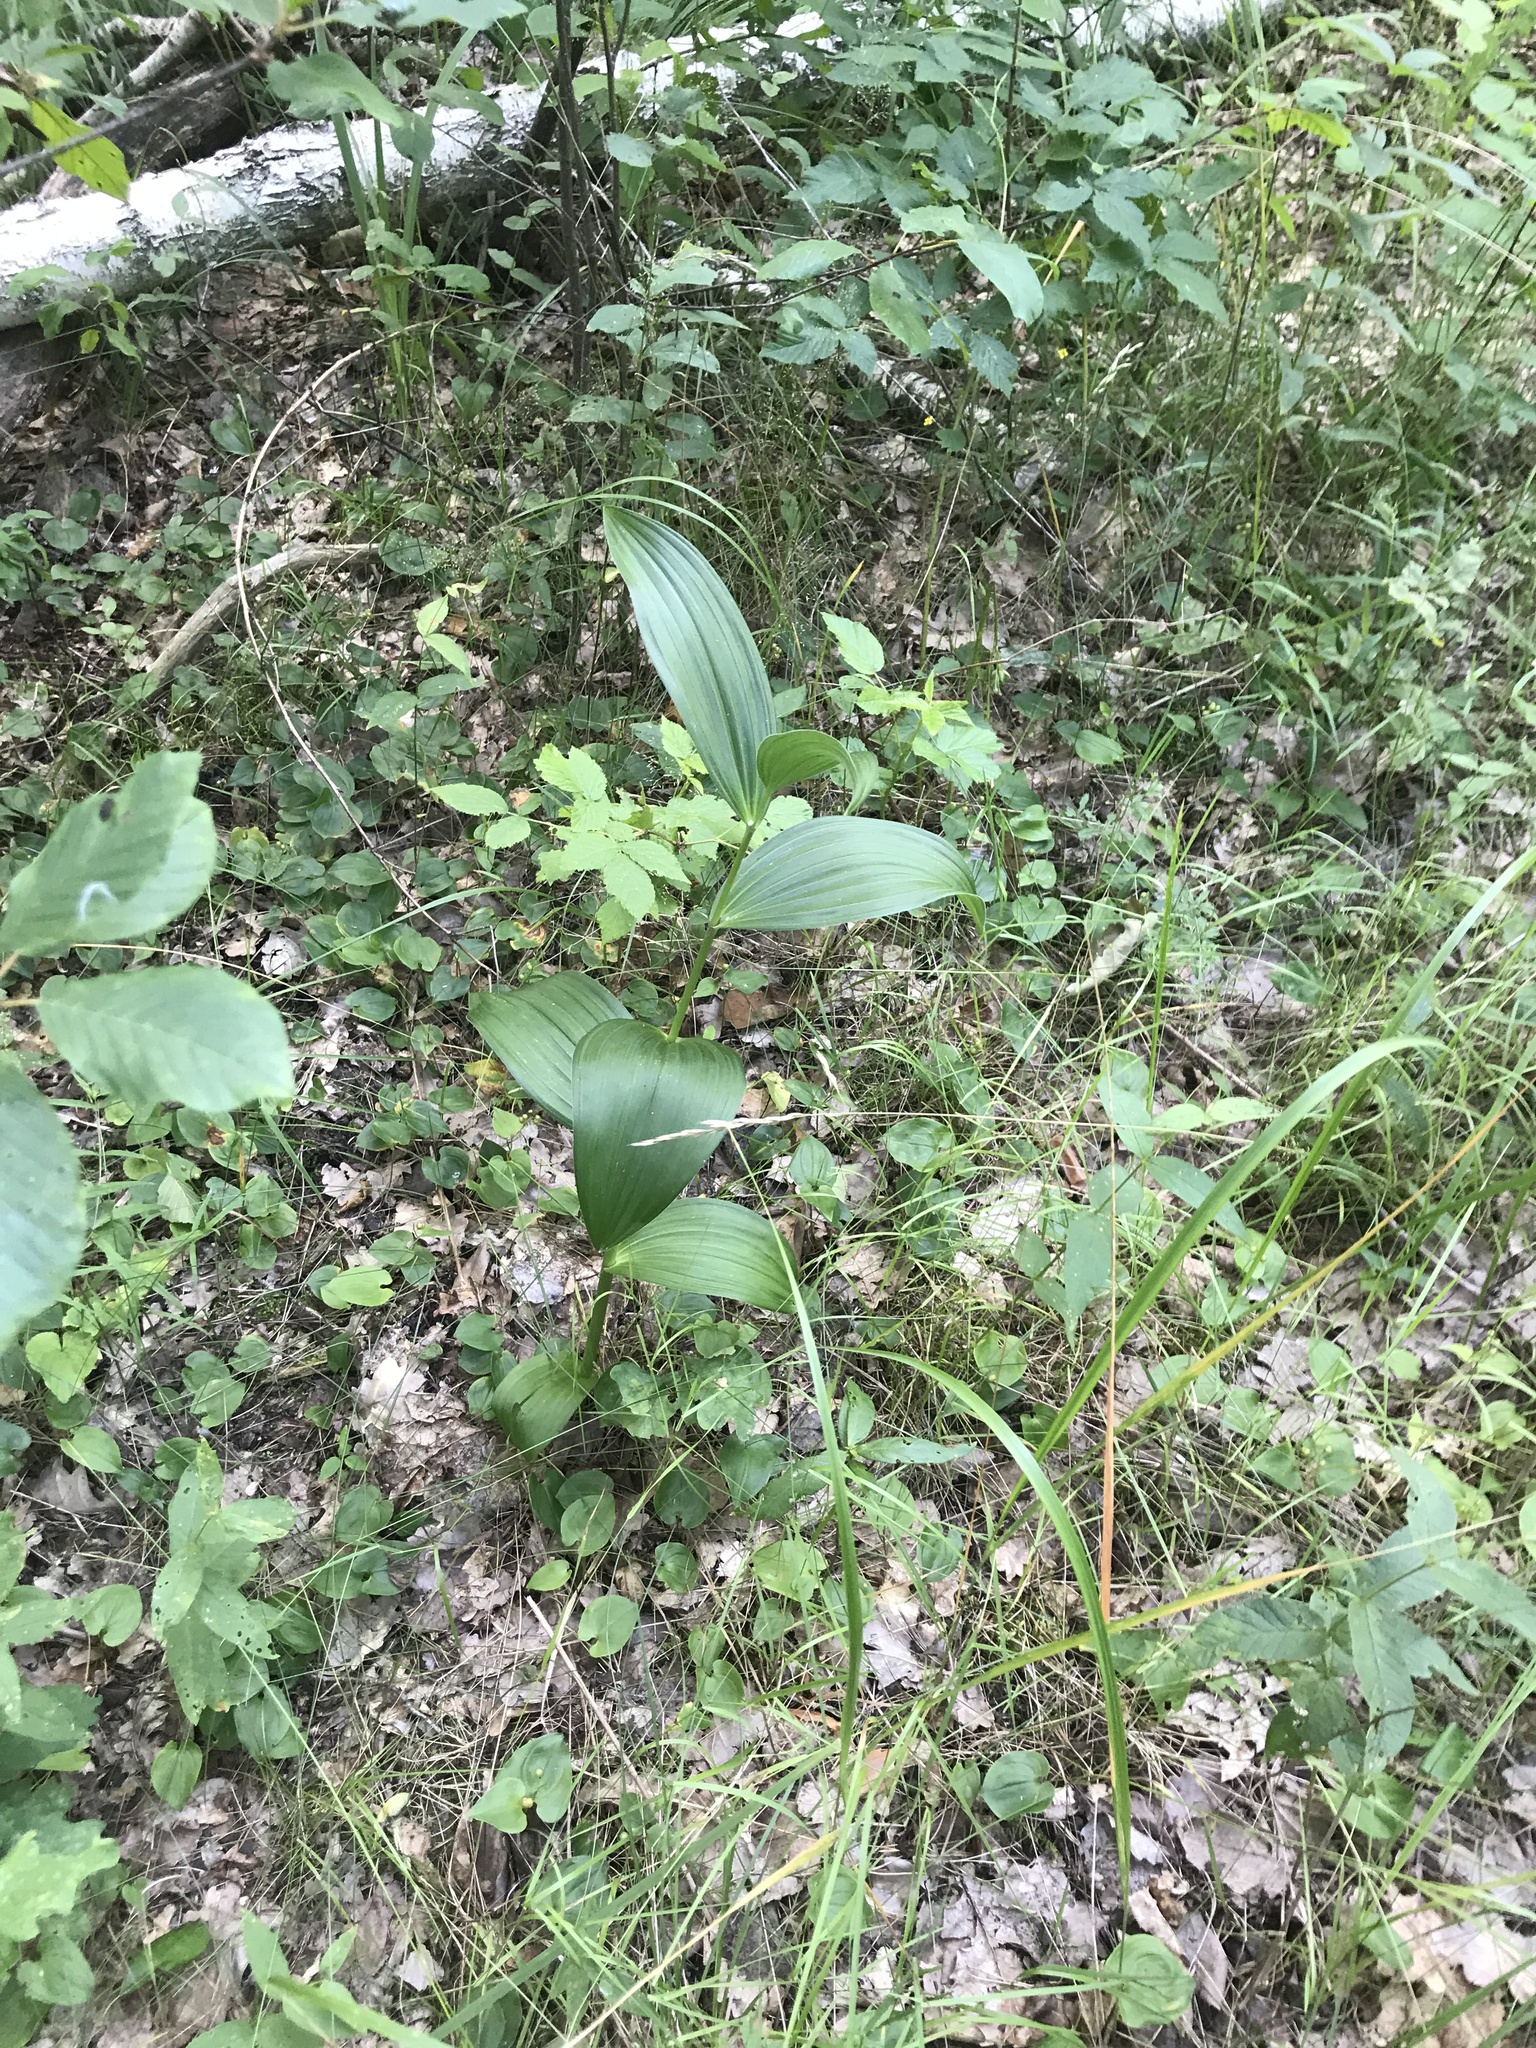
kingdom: Plantae
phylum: Tracheophyta
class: Liliopsida
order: Liliales
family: Melanthiaceae
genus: Veratrum
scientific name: Veratrum lobelianum
